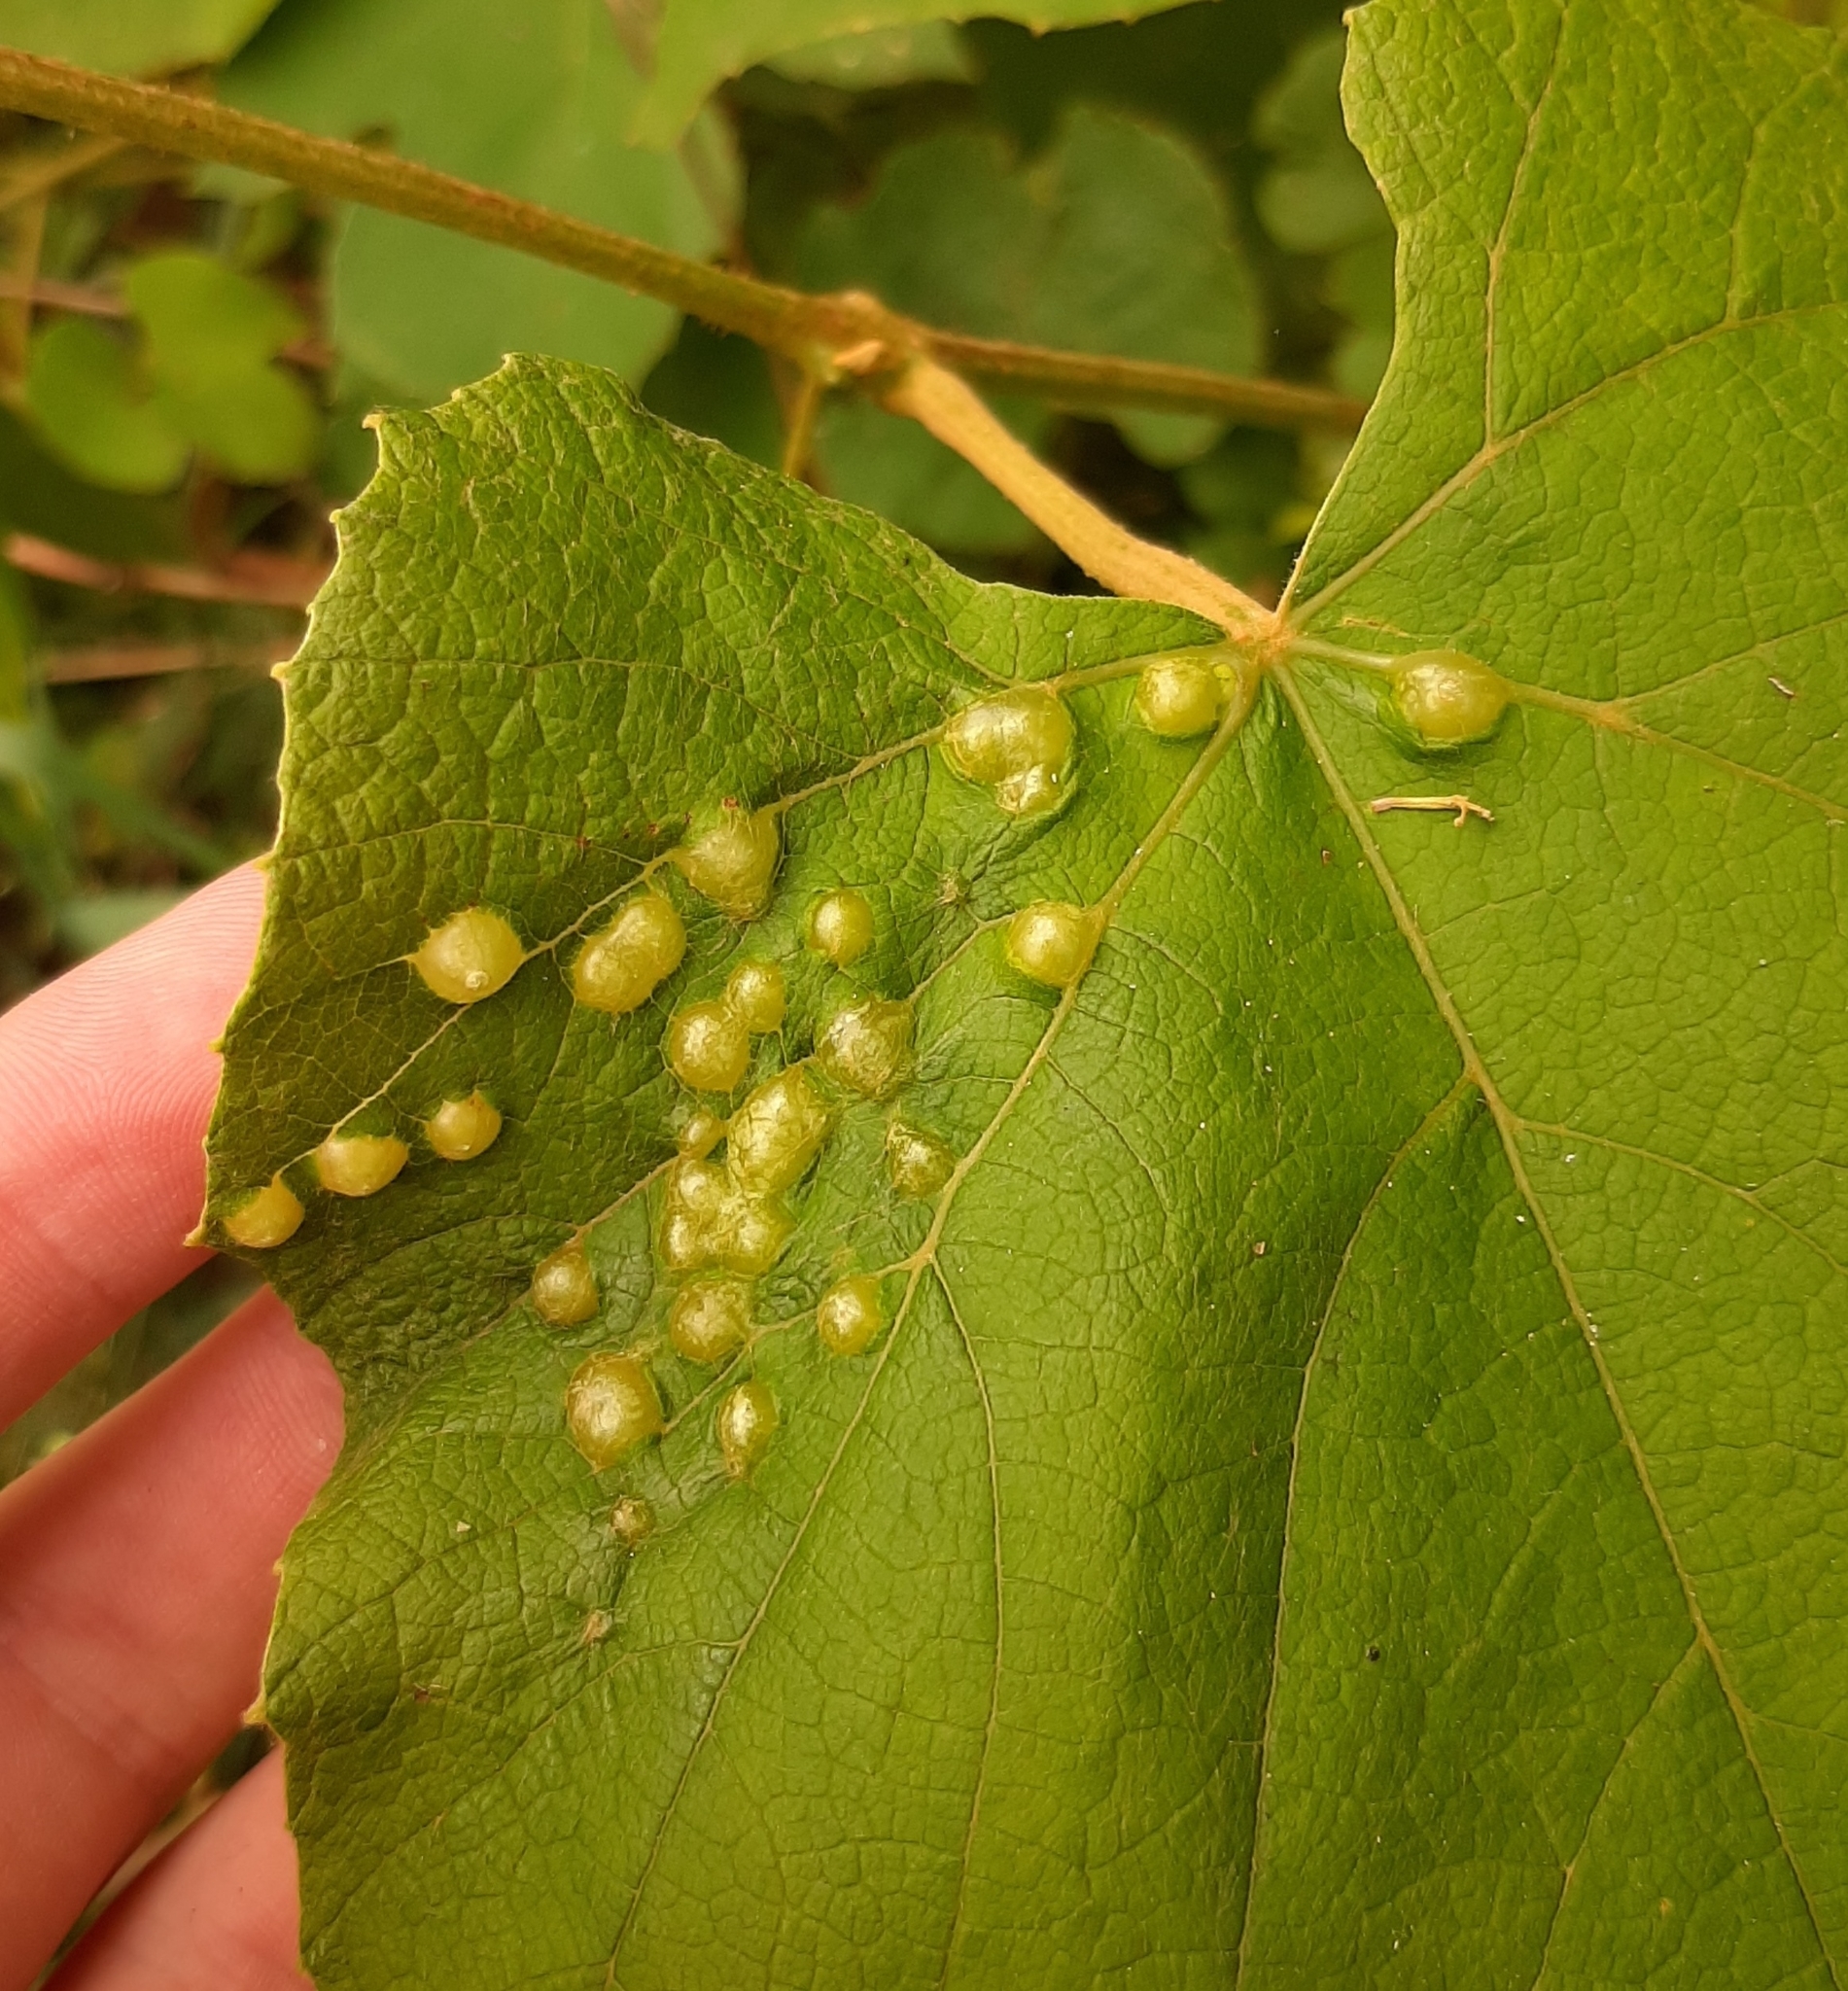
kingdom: Animalia
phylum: Arthropoda
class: Insecta
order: Diptera
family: Cecidomyiidae
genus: Vitisiella
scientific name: Vitisiella brevicauda
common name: Grape tumid gallmaker midge
